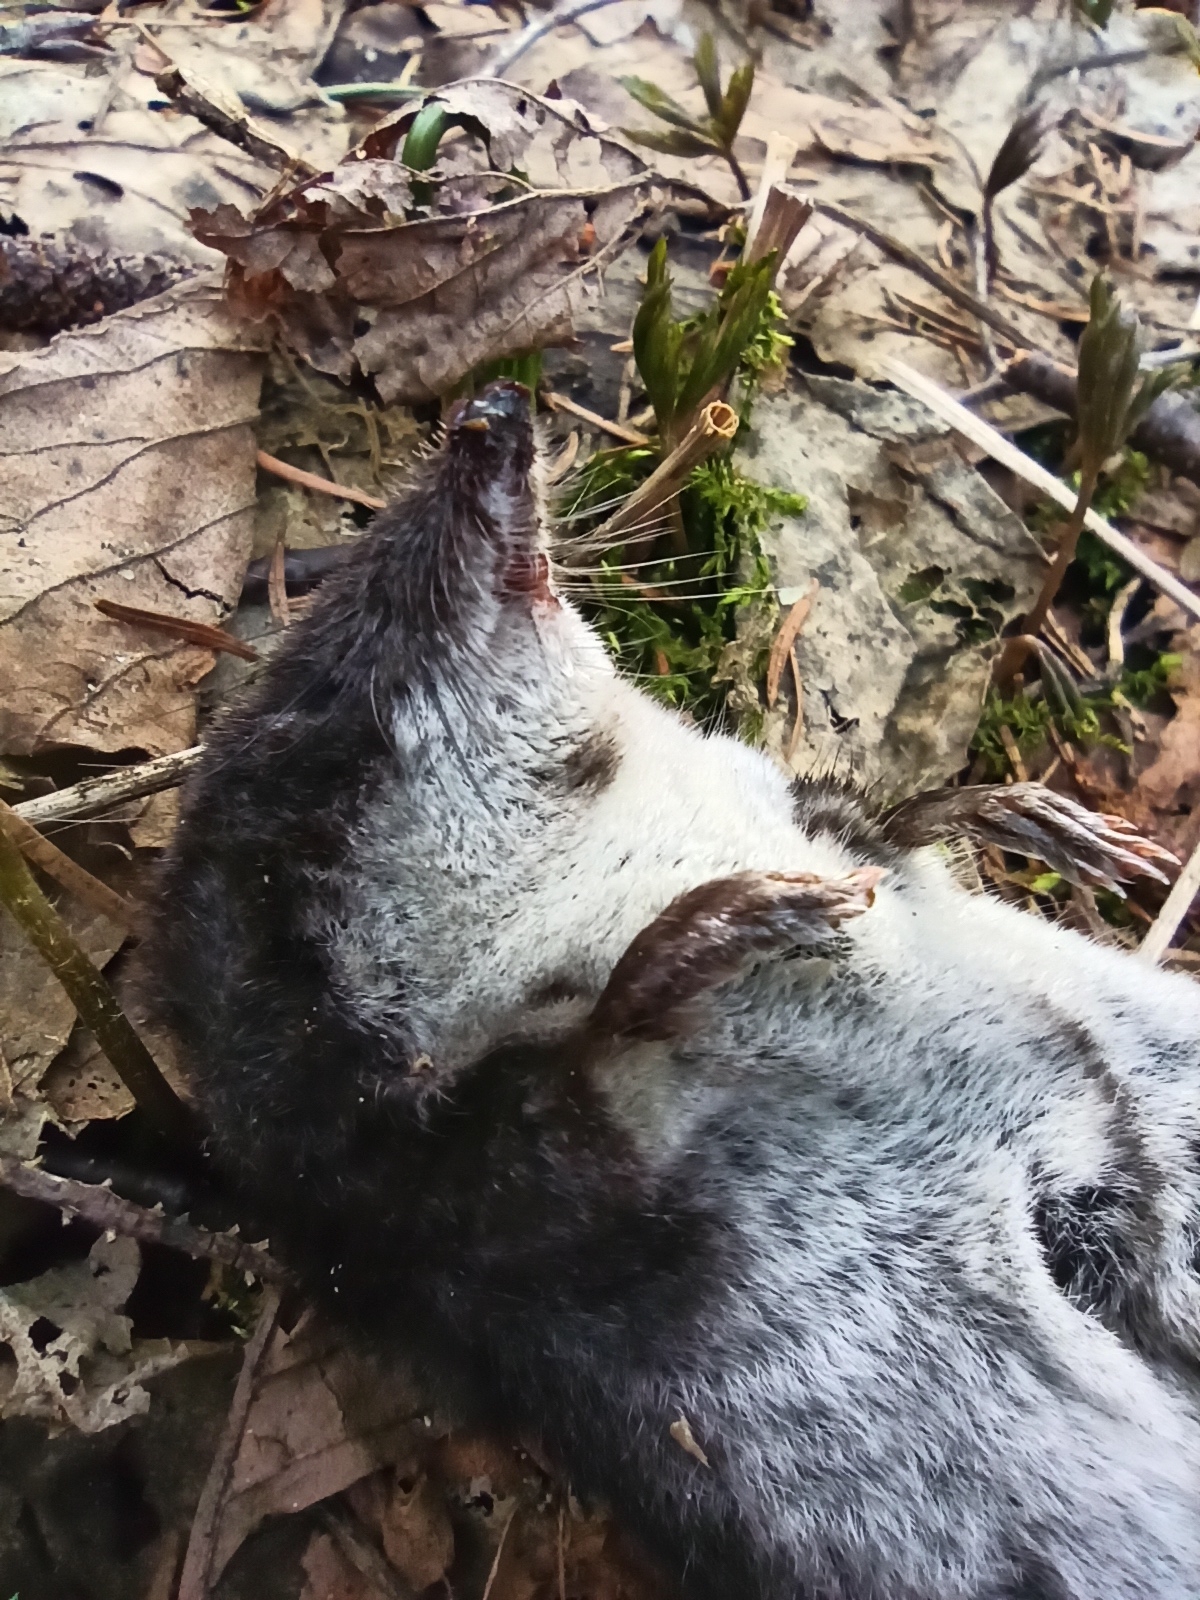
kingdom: Animalia
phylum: Chordata
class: Mammalia
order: Soricomorpha
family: Soricidae
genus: Neomys
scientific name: Neomys fodiens
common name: Eurasian water shrew
